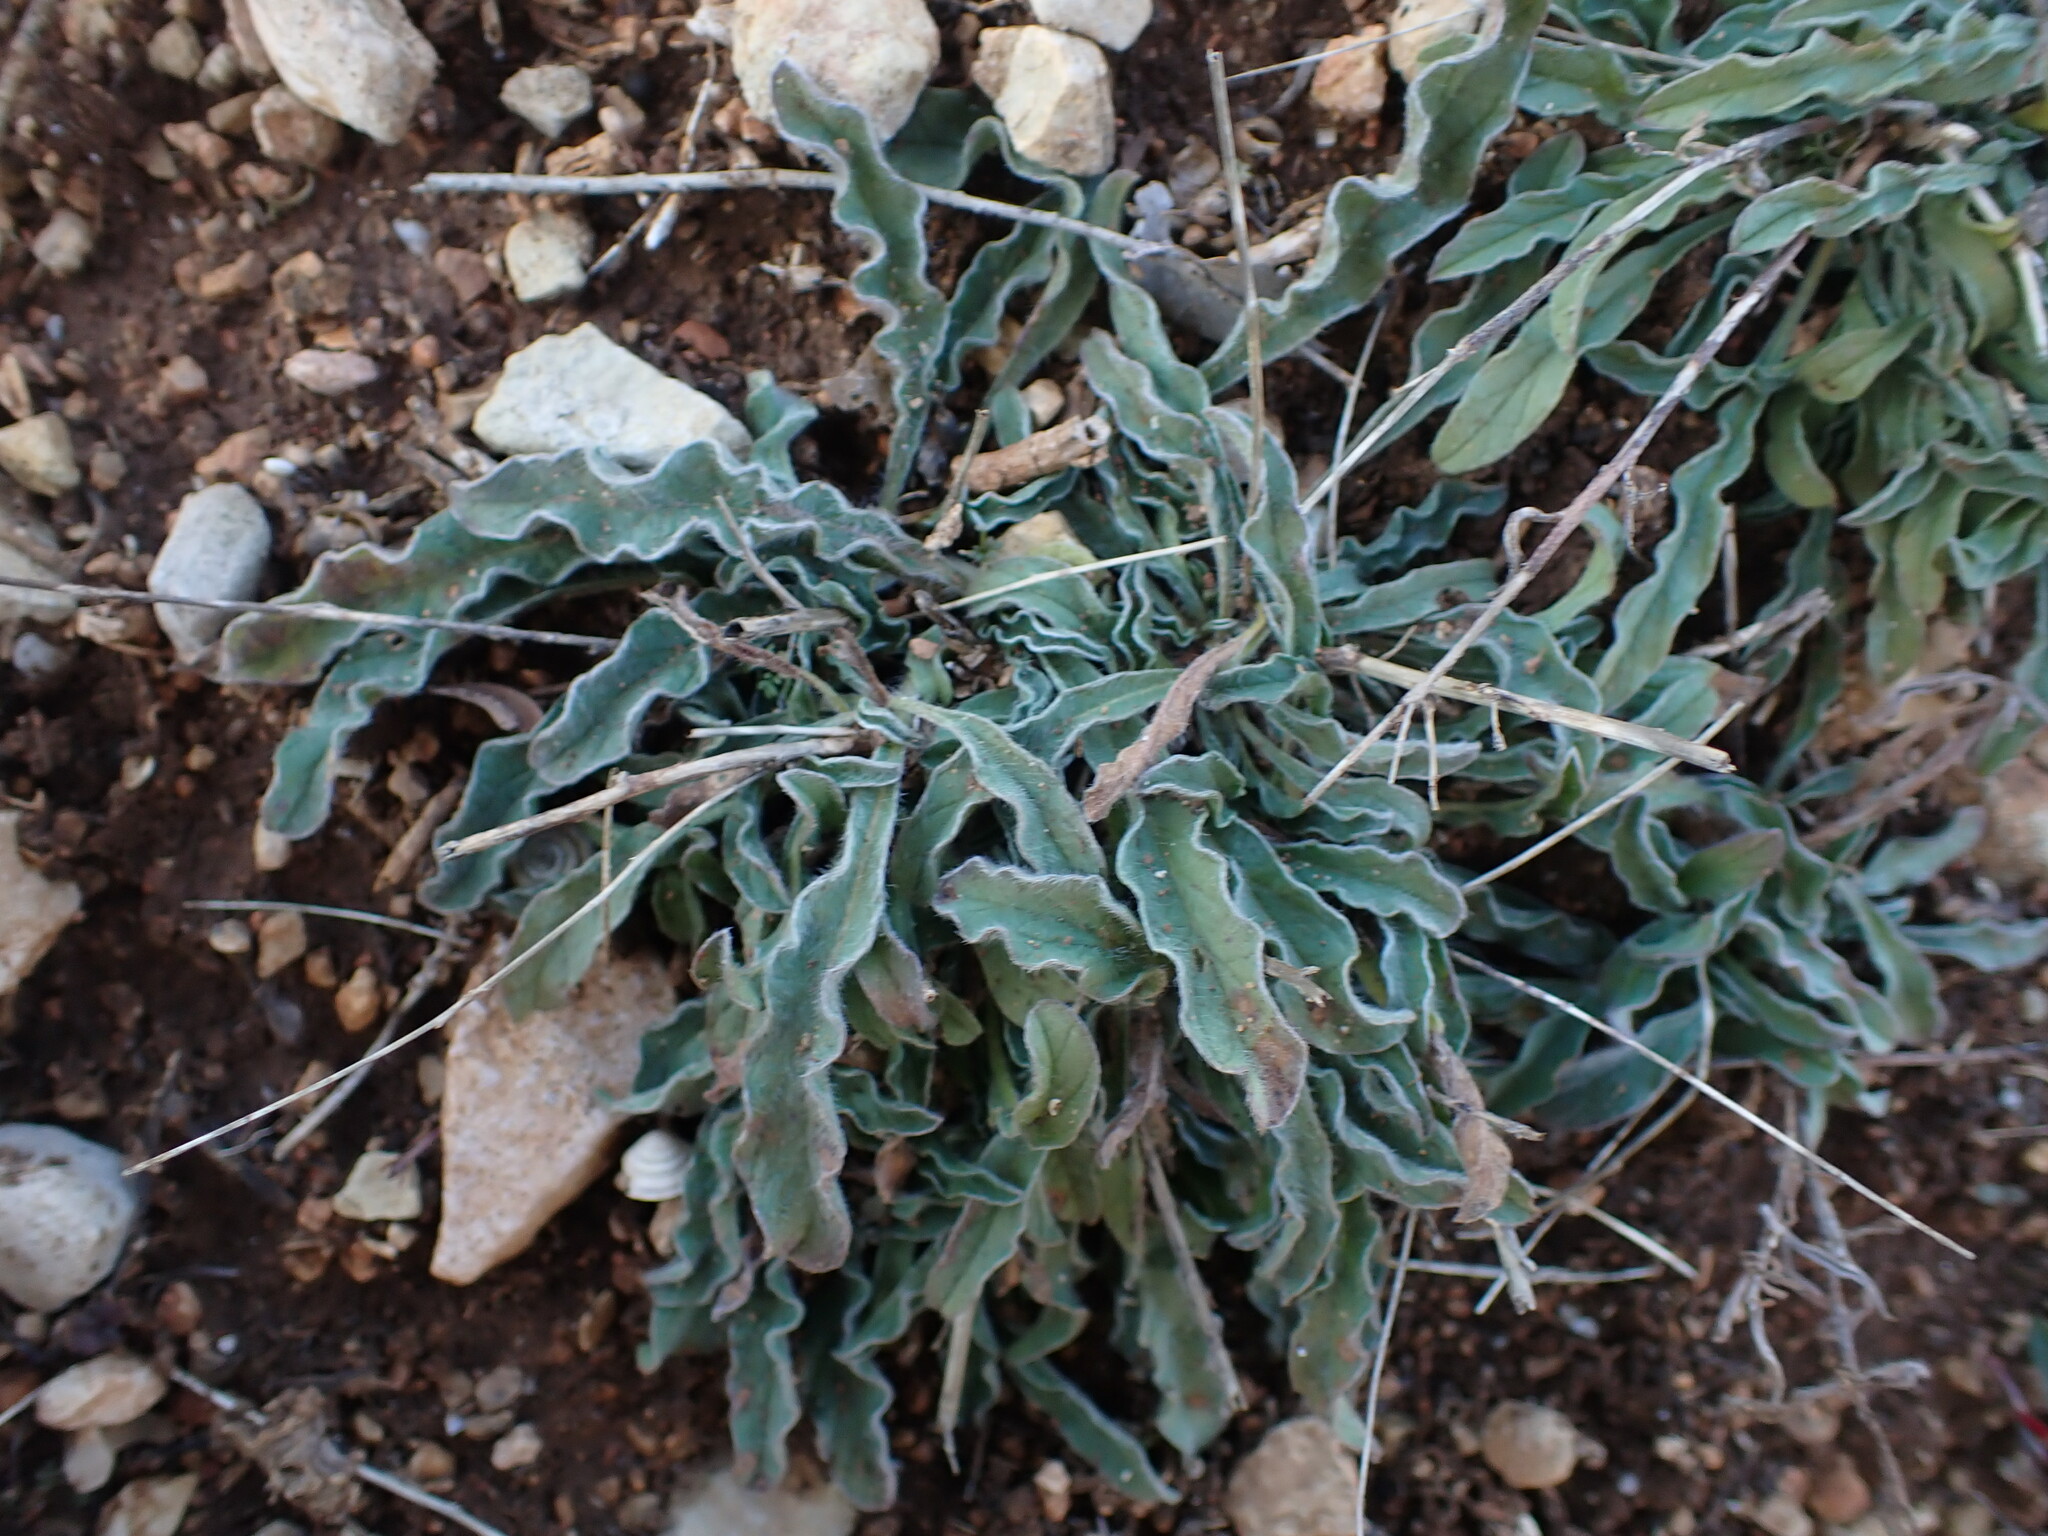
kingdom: Plantae
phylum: Tracheophyta
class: Magnoliopsida
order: Solanales
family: Convolvulaceae
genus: Convolvulus
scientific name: Convolvulus cantabrica
